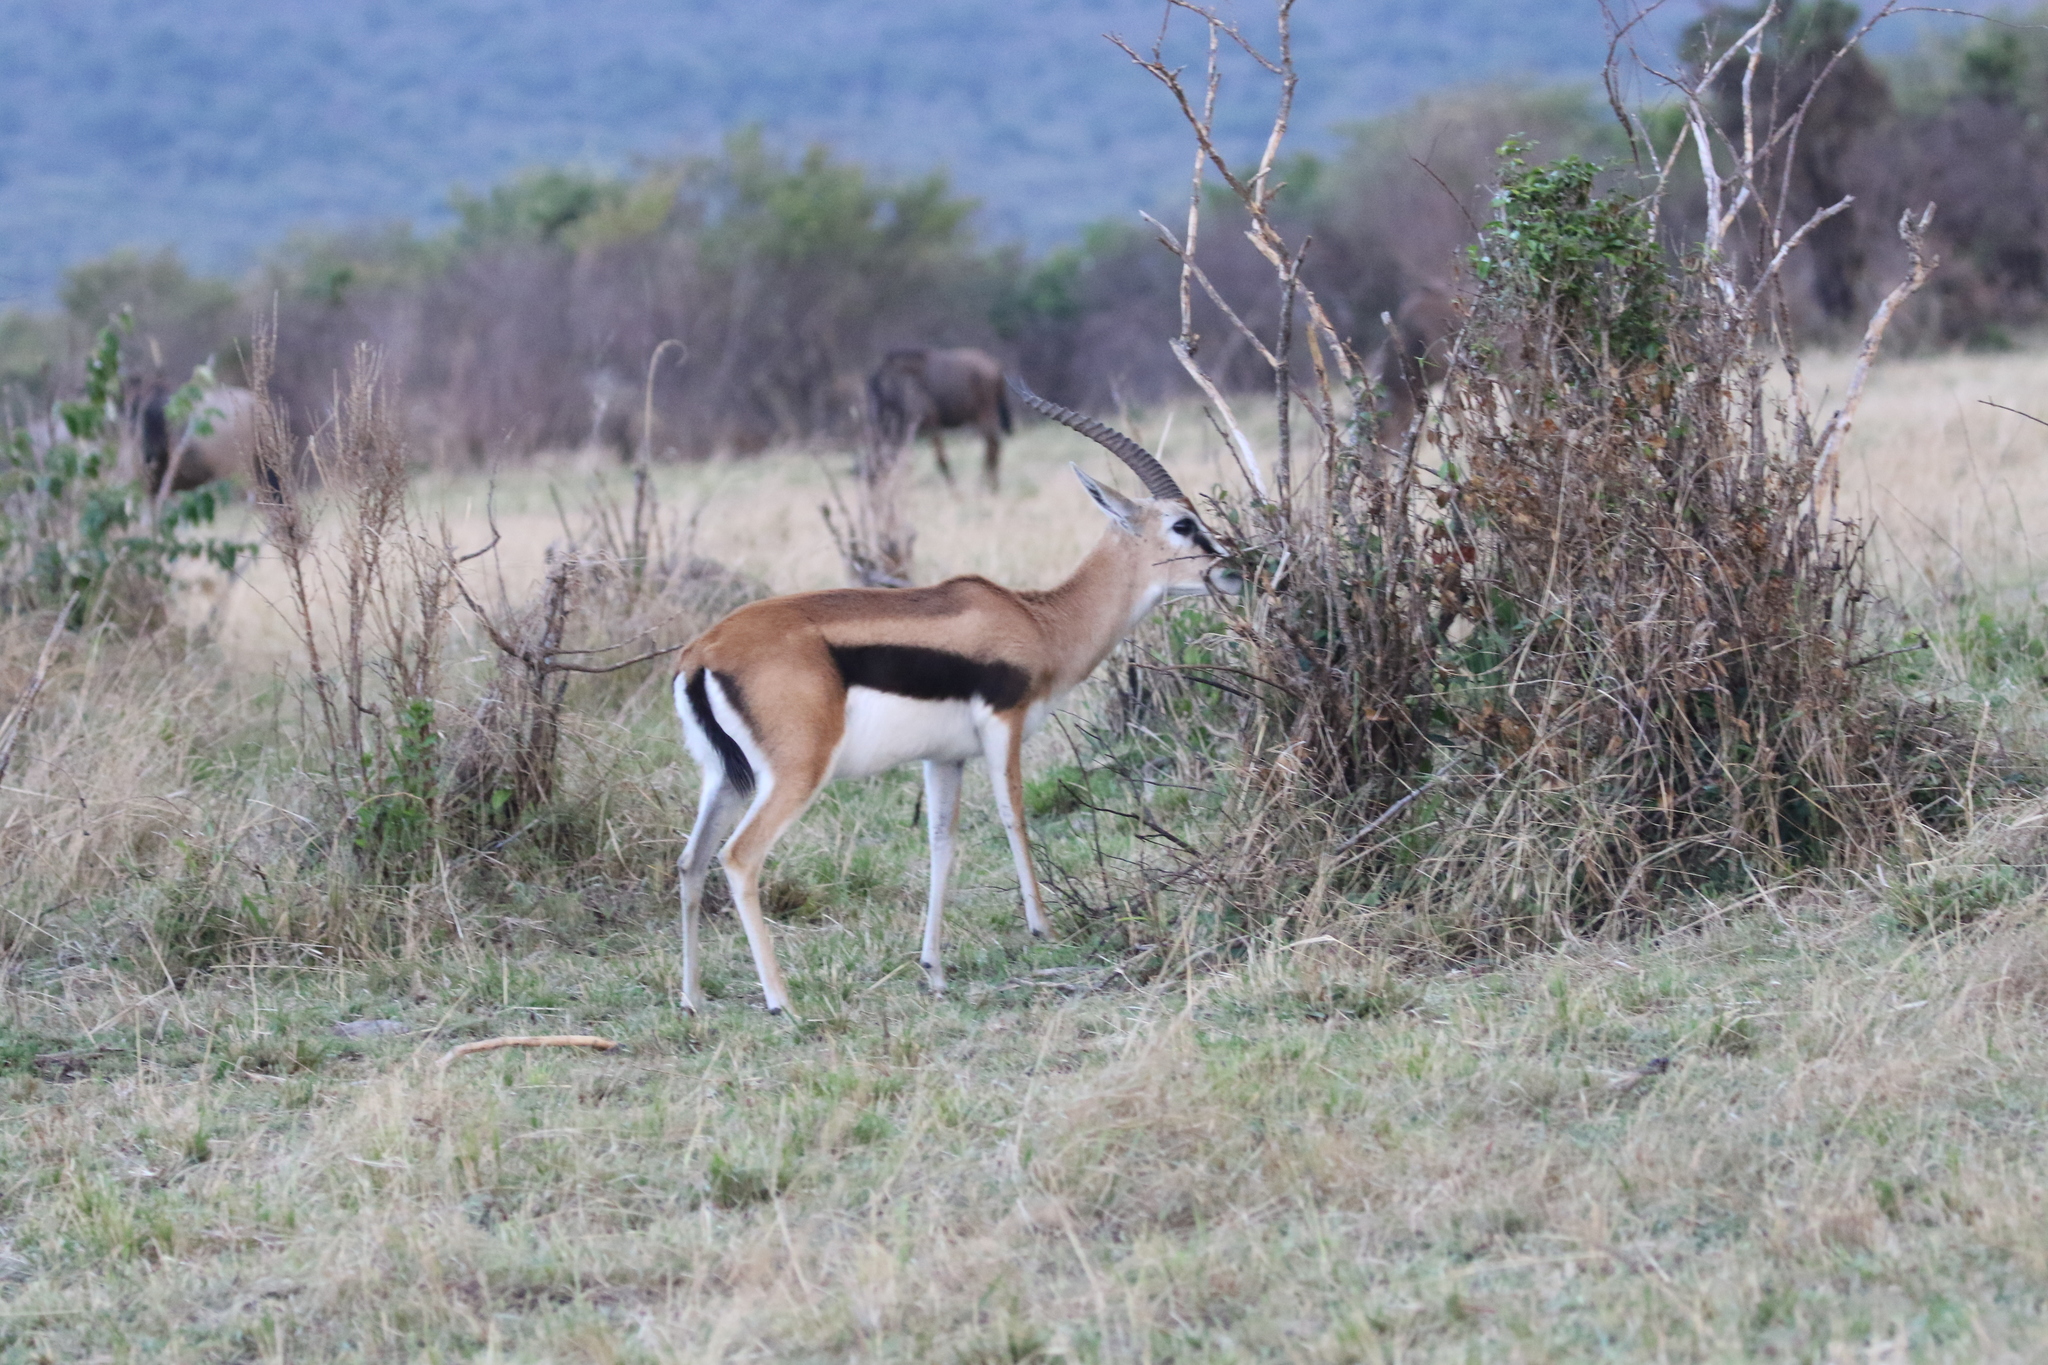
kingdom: Animalia
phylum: Chordata
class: Mammalia
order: Artiodactyla
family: Bovidae
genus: Eudorcas
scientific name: Eudorcas thomsonii
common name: Thomson's gazelle
